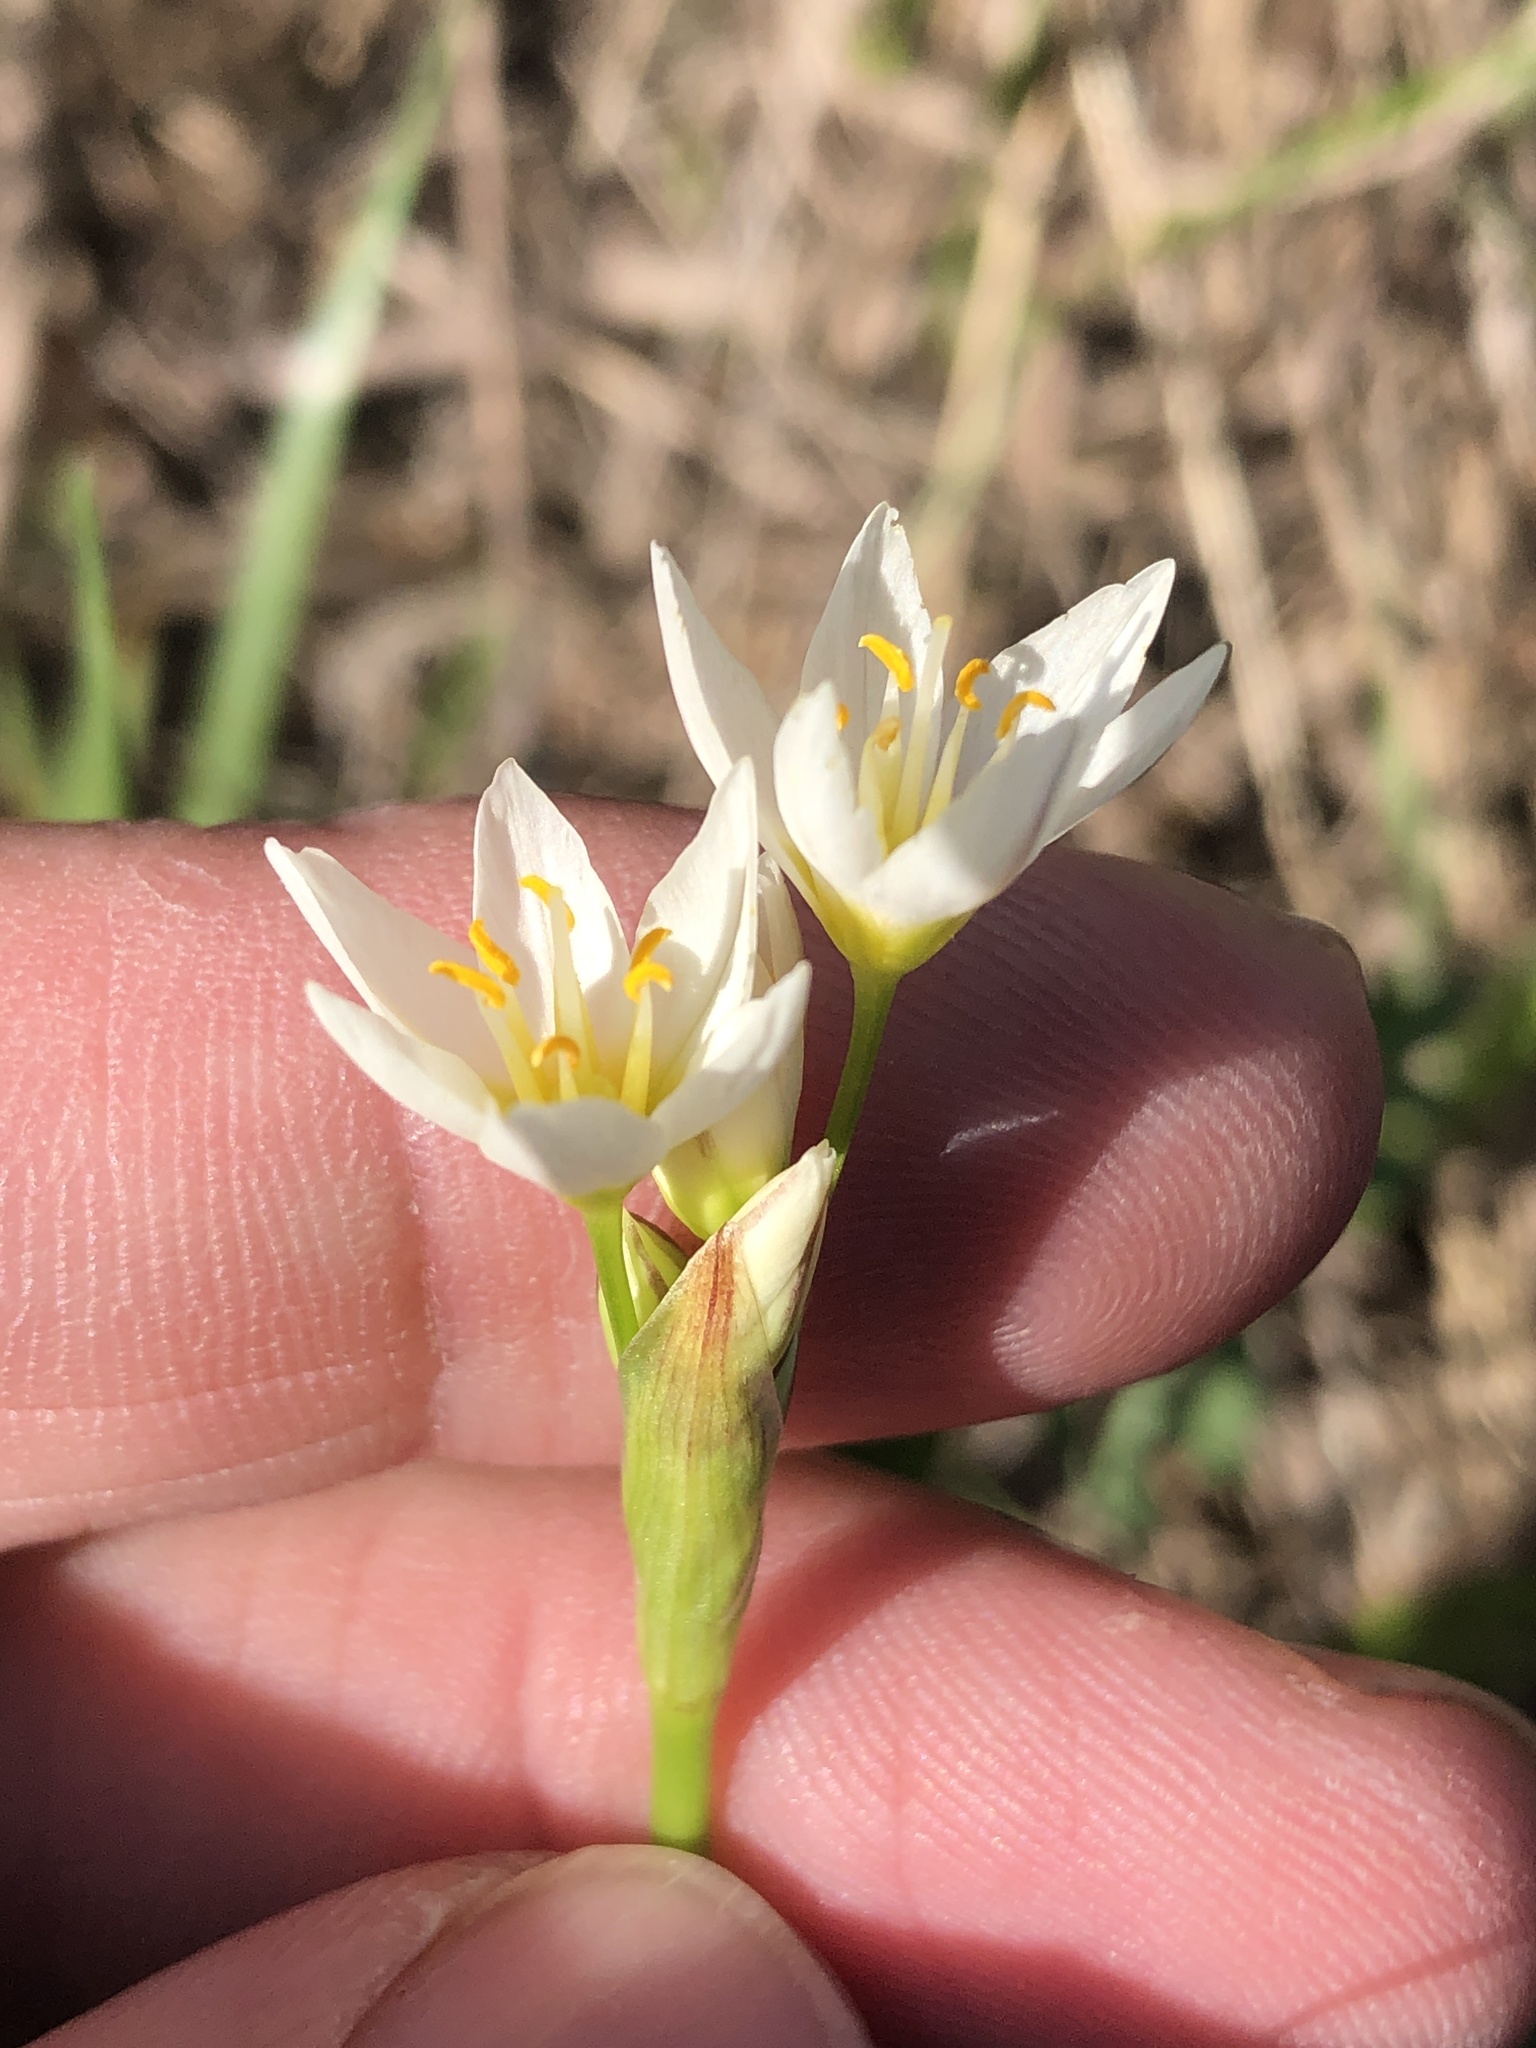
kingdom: Plantae
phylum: Tracheophyta
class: Liliopsida
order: Asparagales
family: Amaryllidaceae
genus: Nothoscordum
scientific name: Nothoscordum bivalve
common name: Crow-poison
